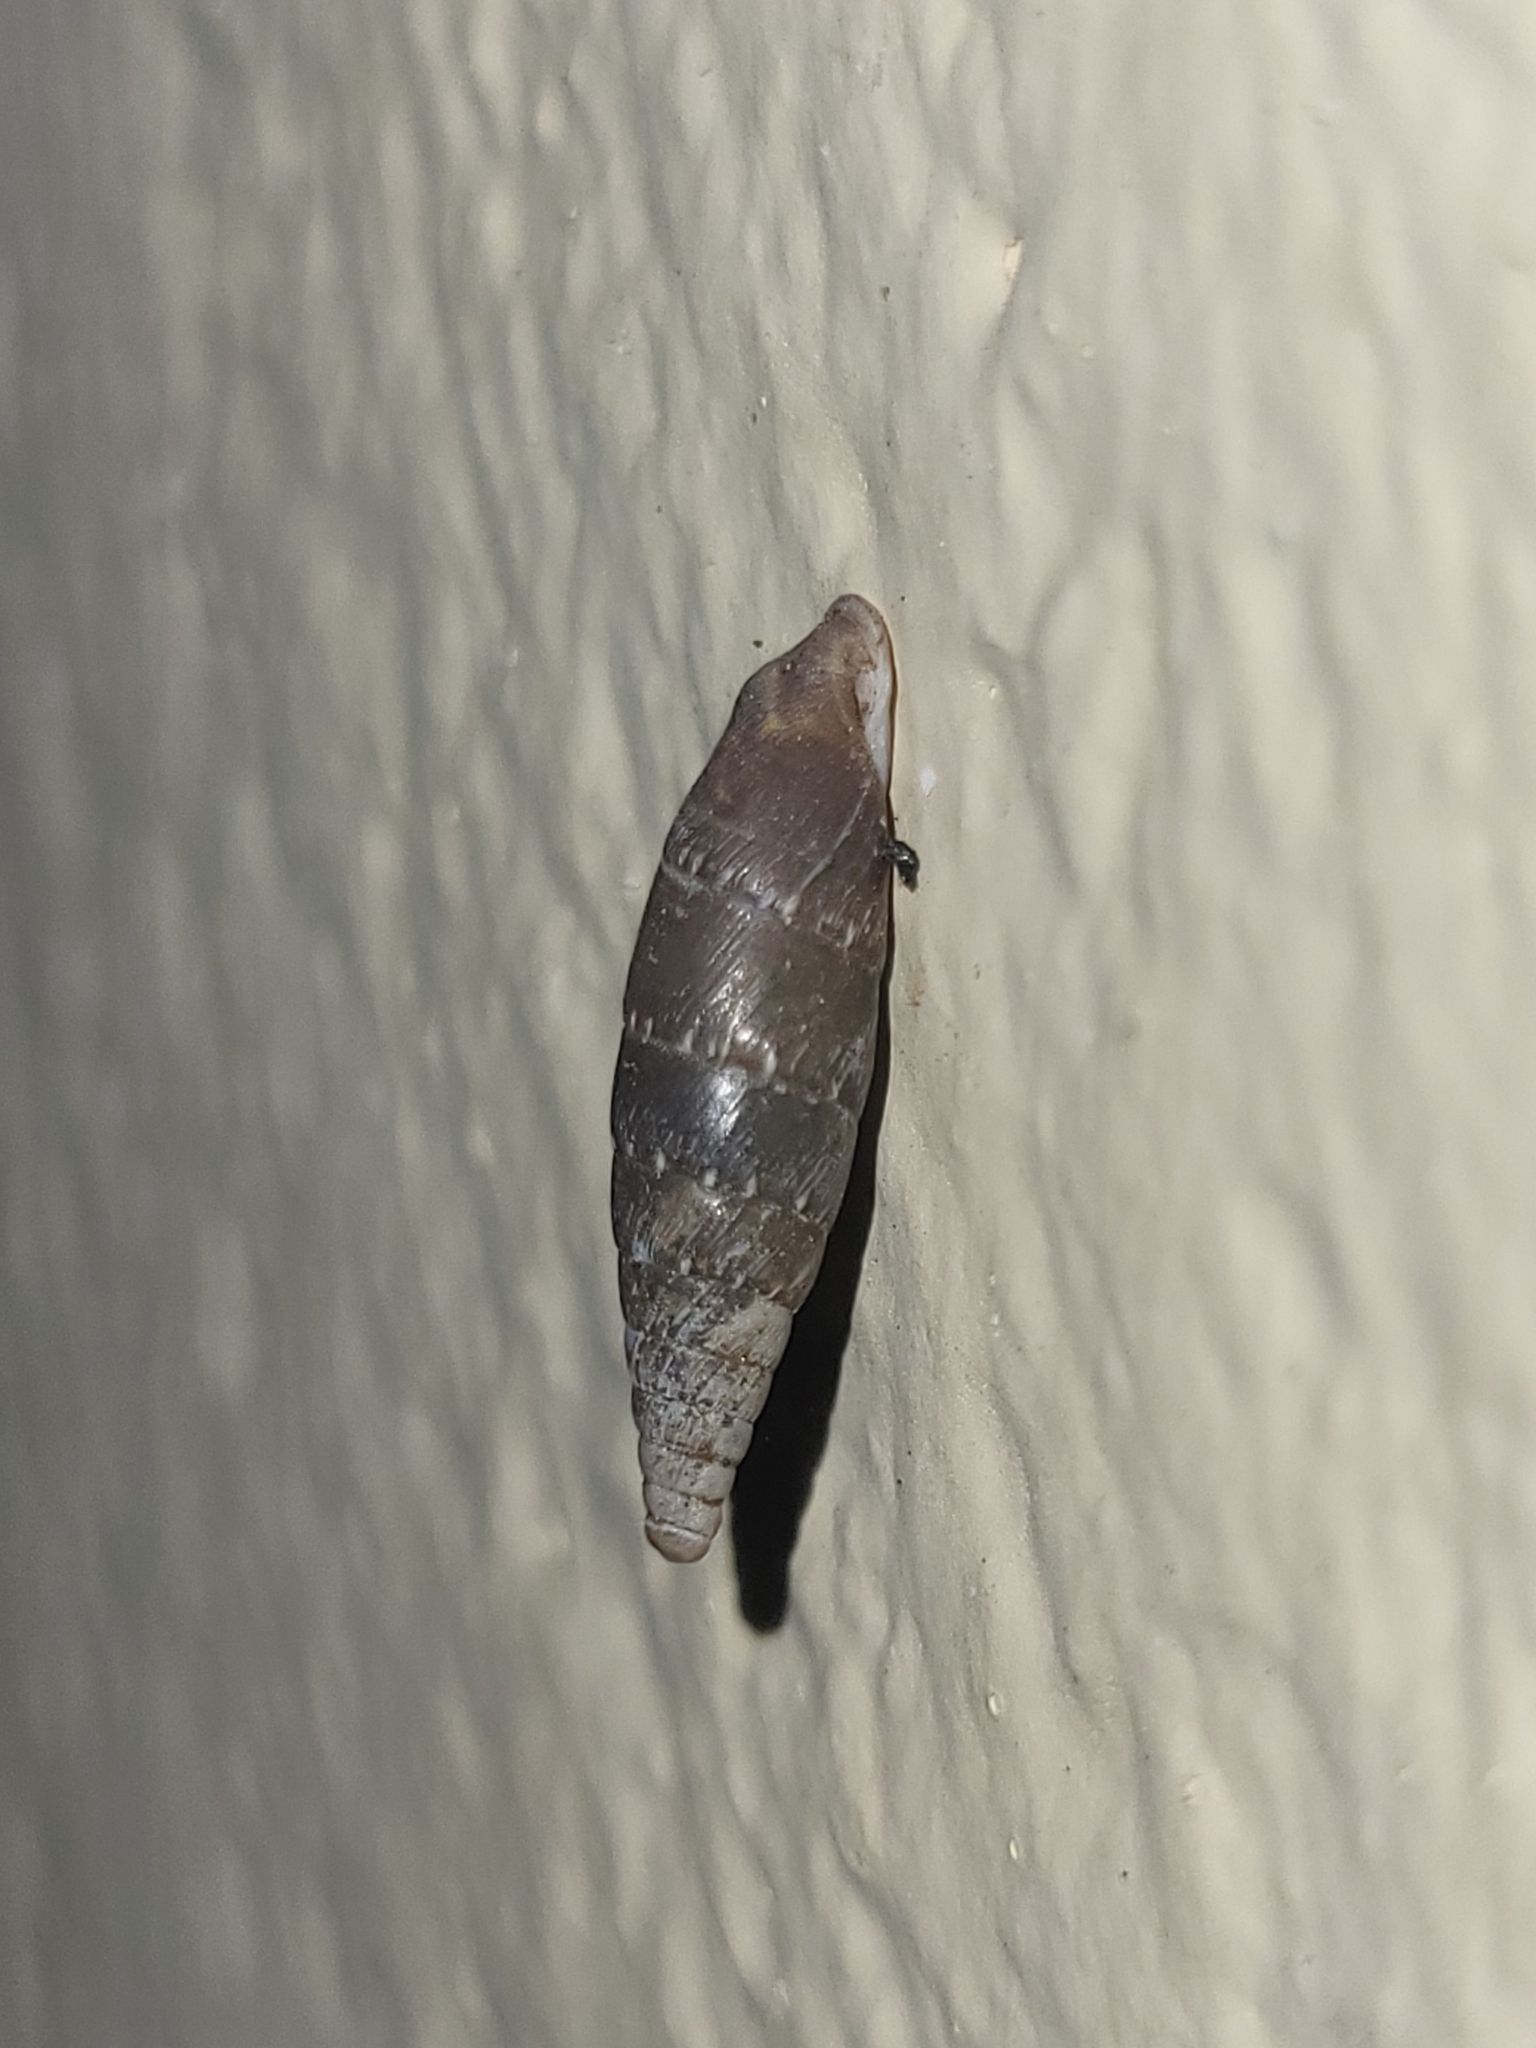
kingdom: Animalia
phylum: Mollusca
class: Gastropoda
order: Stylommatophora
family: Clausiliidae
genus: Stigmatica
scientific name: Stigmatica stigmatica
